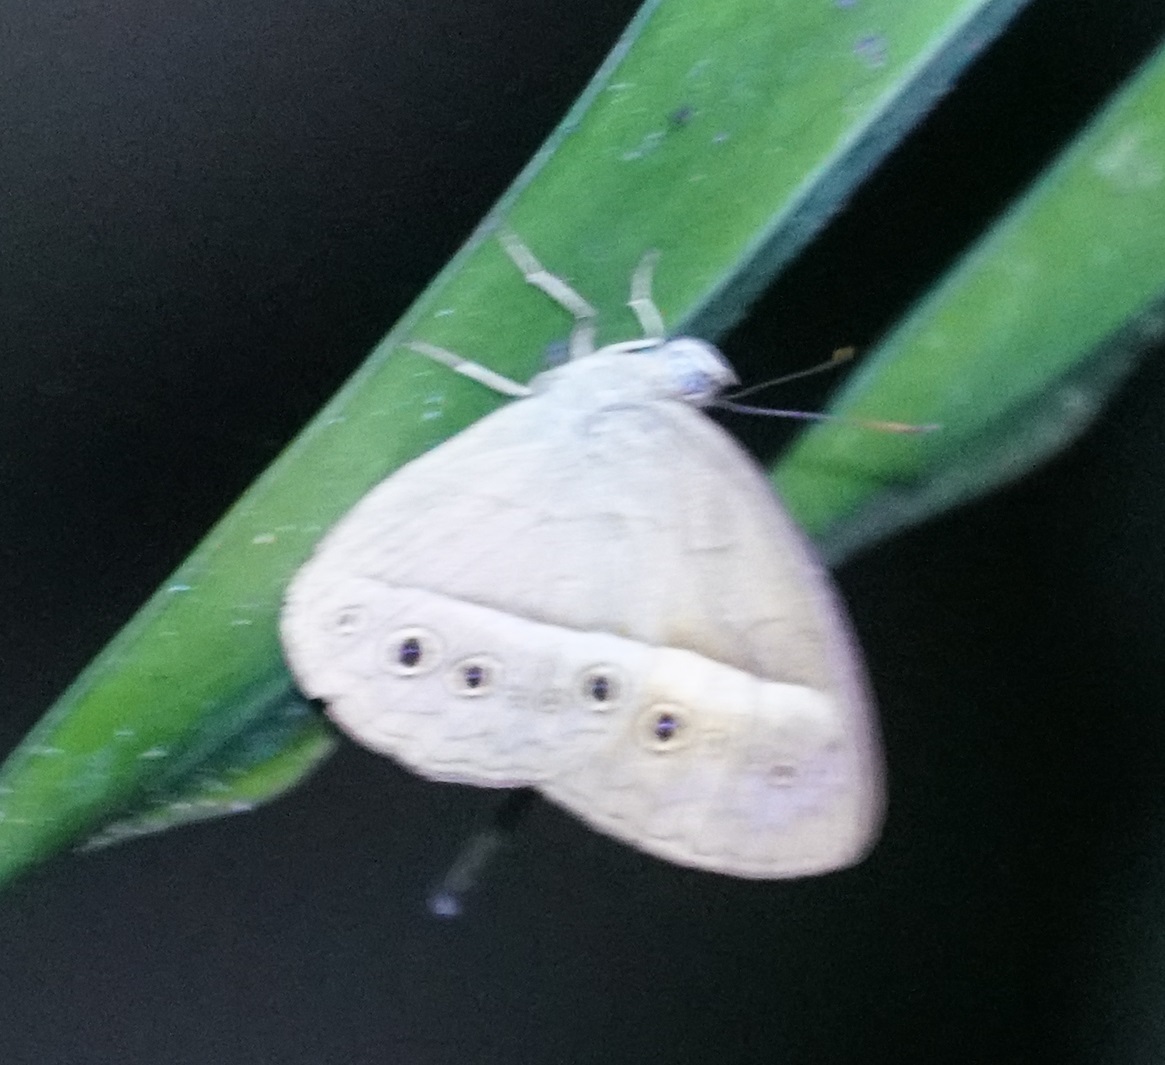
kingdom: Animalia
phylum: Arthropoda
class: Insecta
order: Lepidoptera
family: Nymphalidae
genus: Mycalesis
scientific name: Mycalesis terminus
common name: Orange bushbrown
